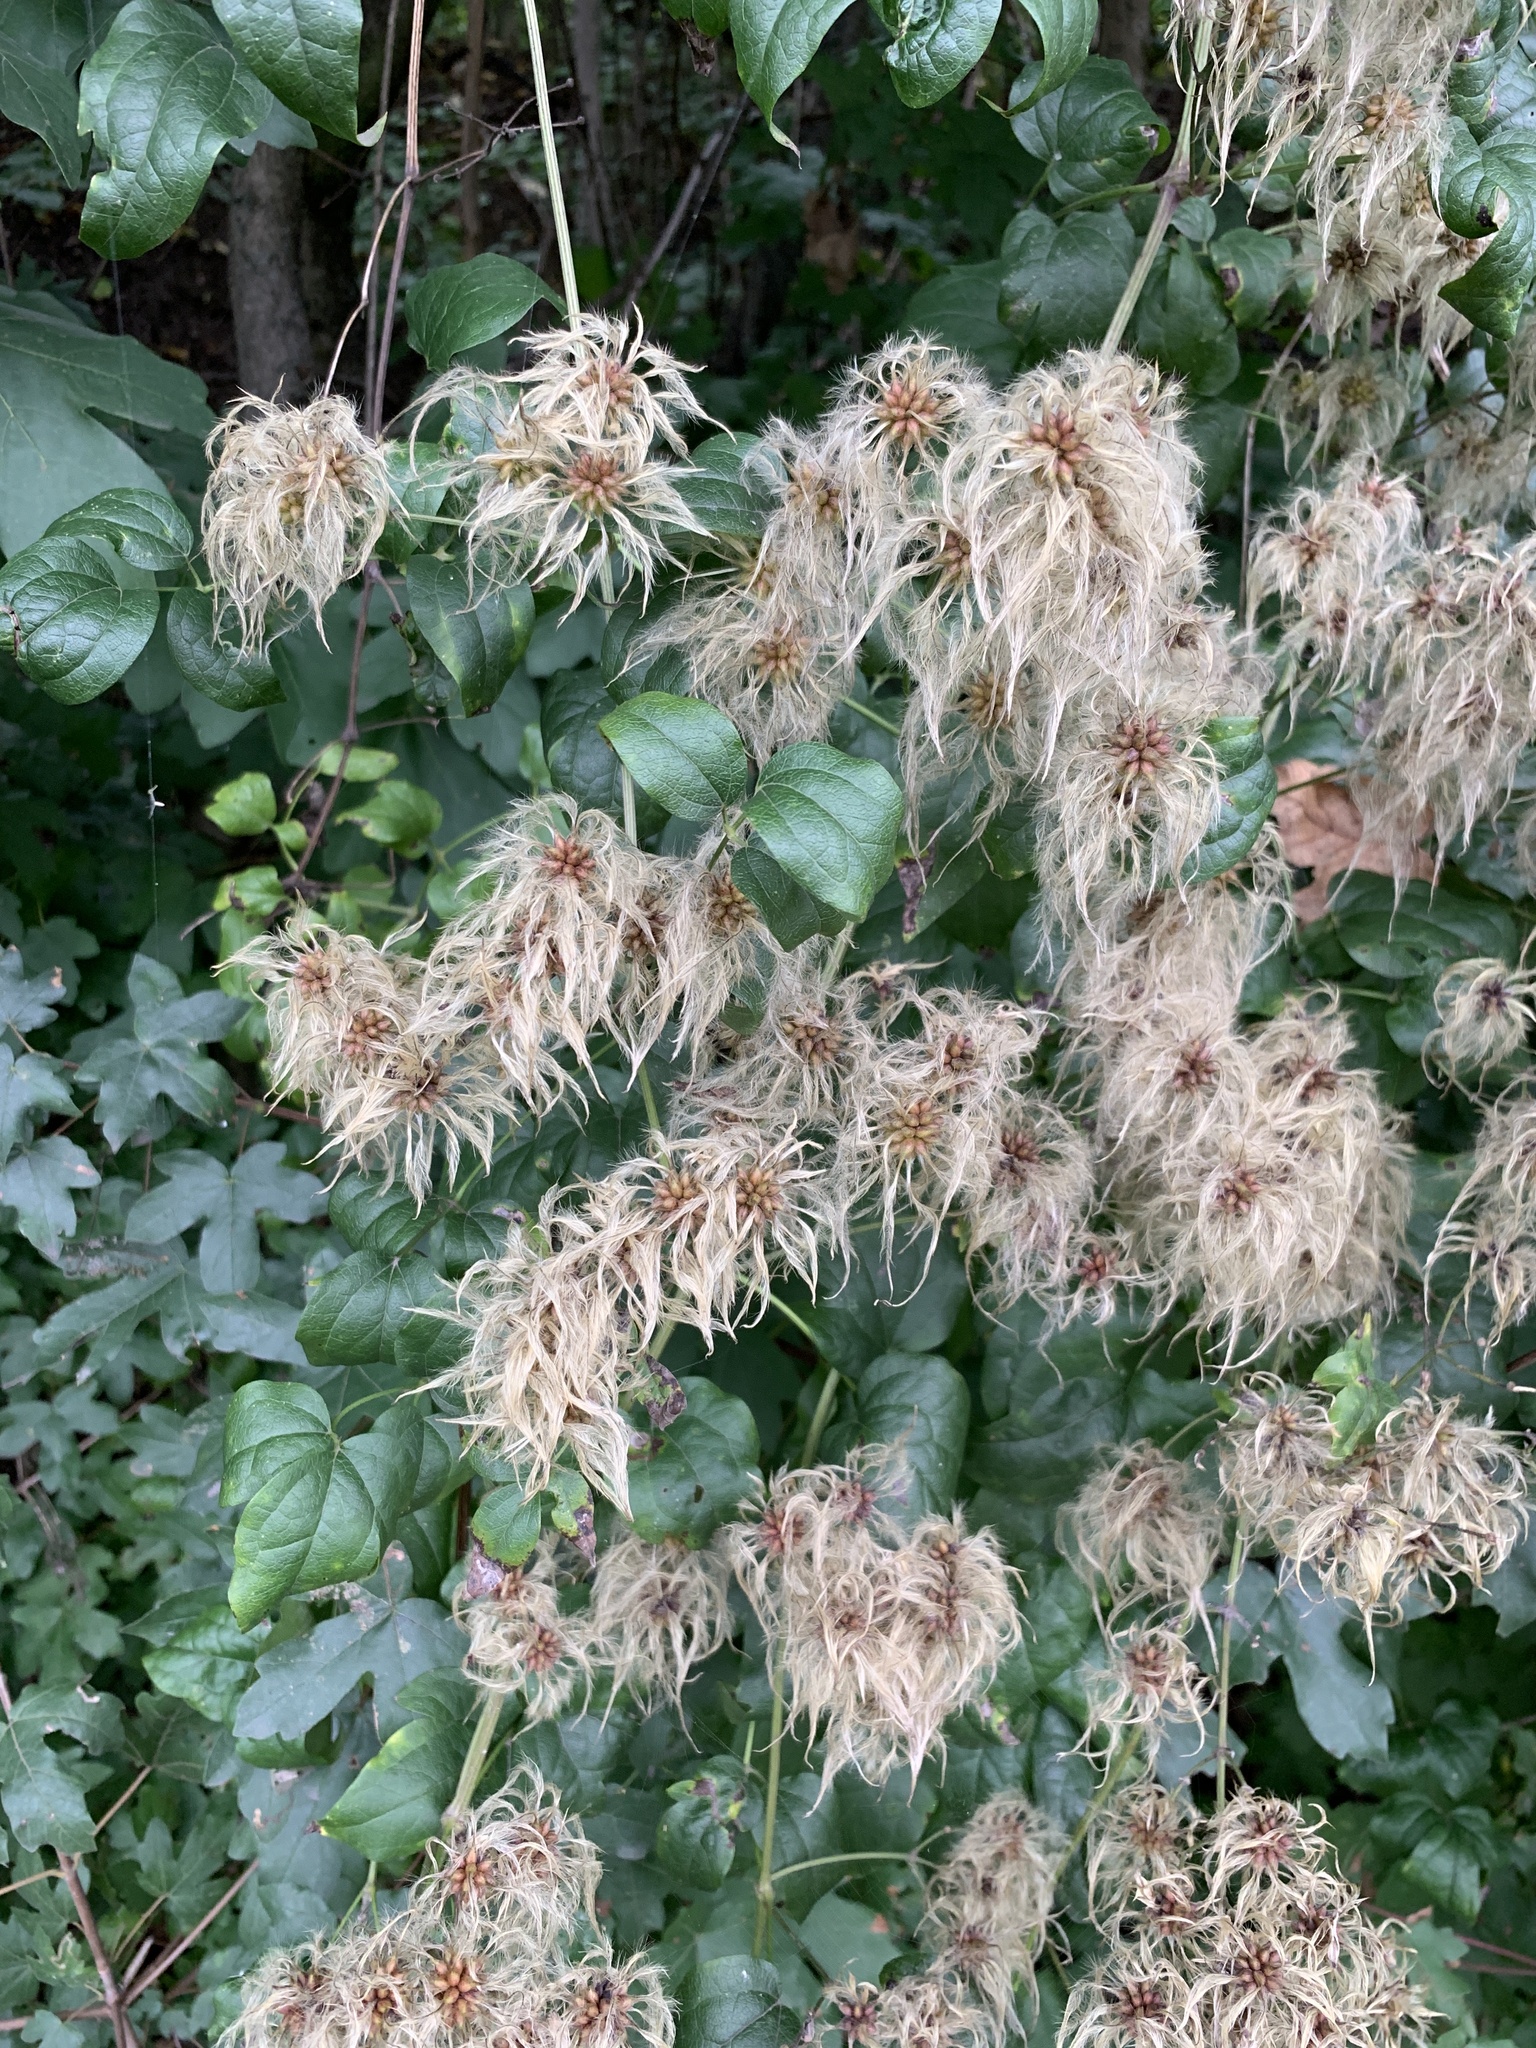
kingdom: Plantae
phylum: Tracheophyta
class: Magnoliopsida
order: Ranunculales
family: Ranunculaceae
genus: Clematis
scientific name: Clematis vitalba
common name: Evergreen clematis
